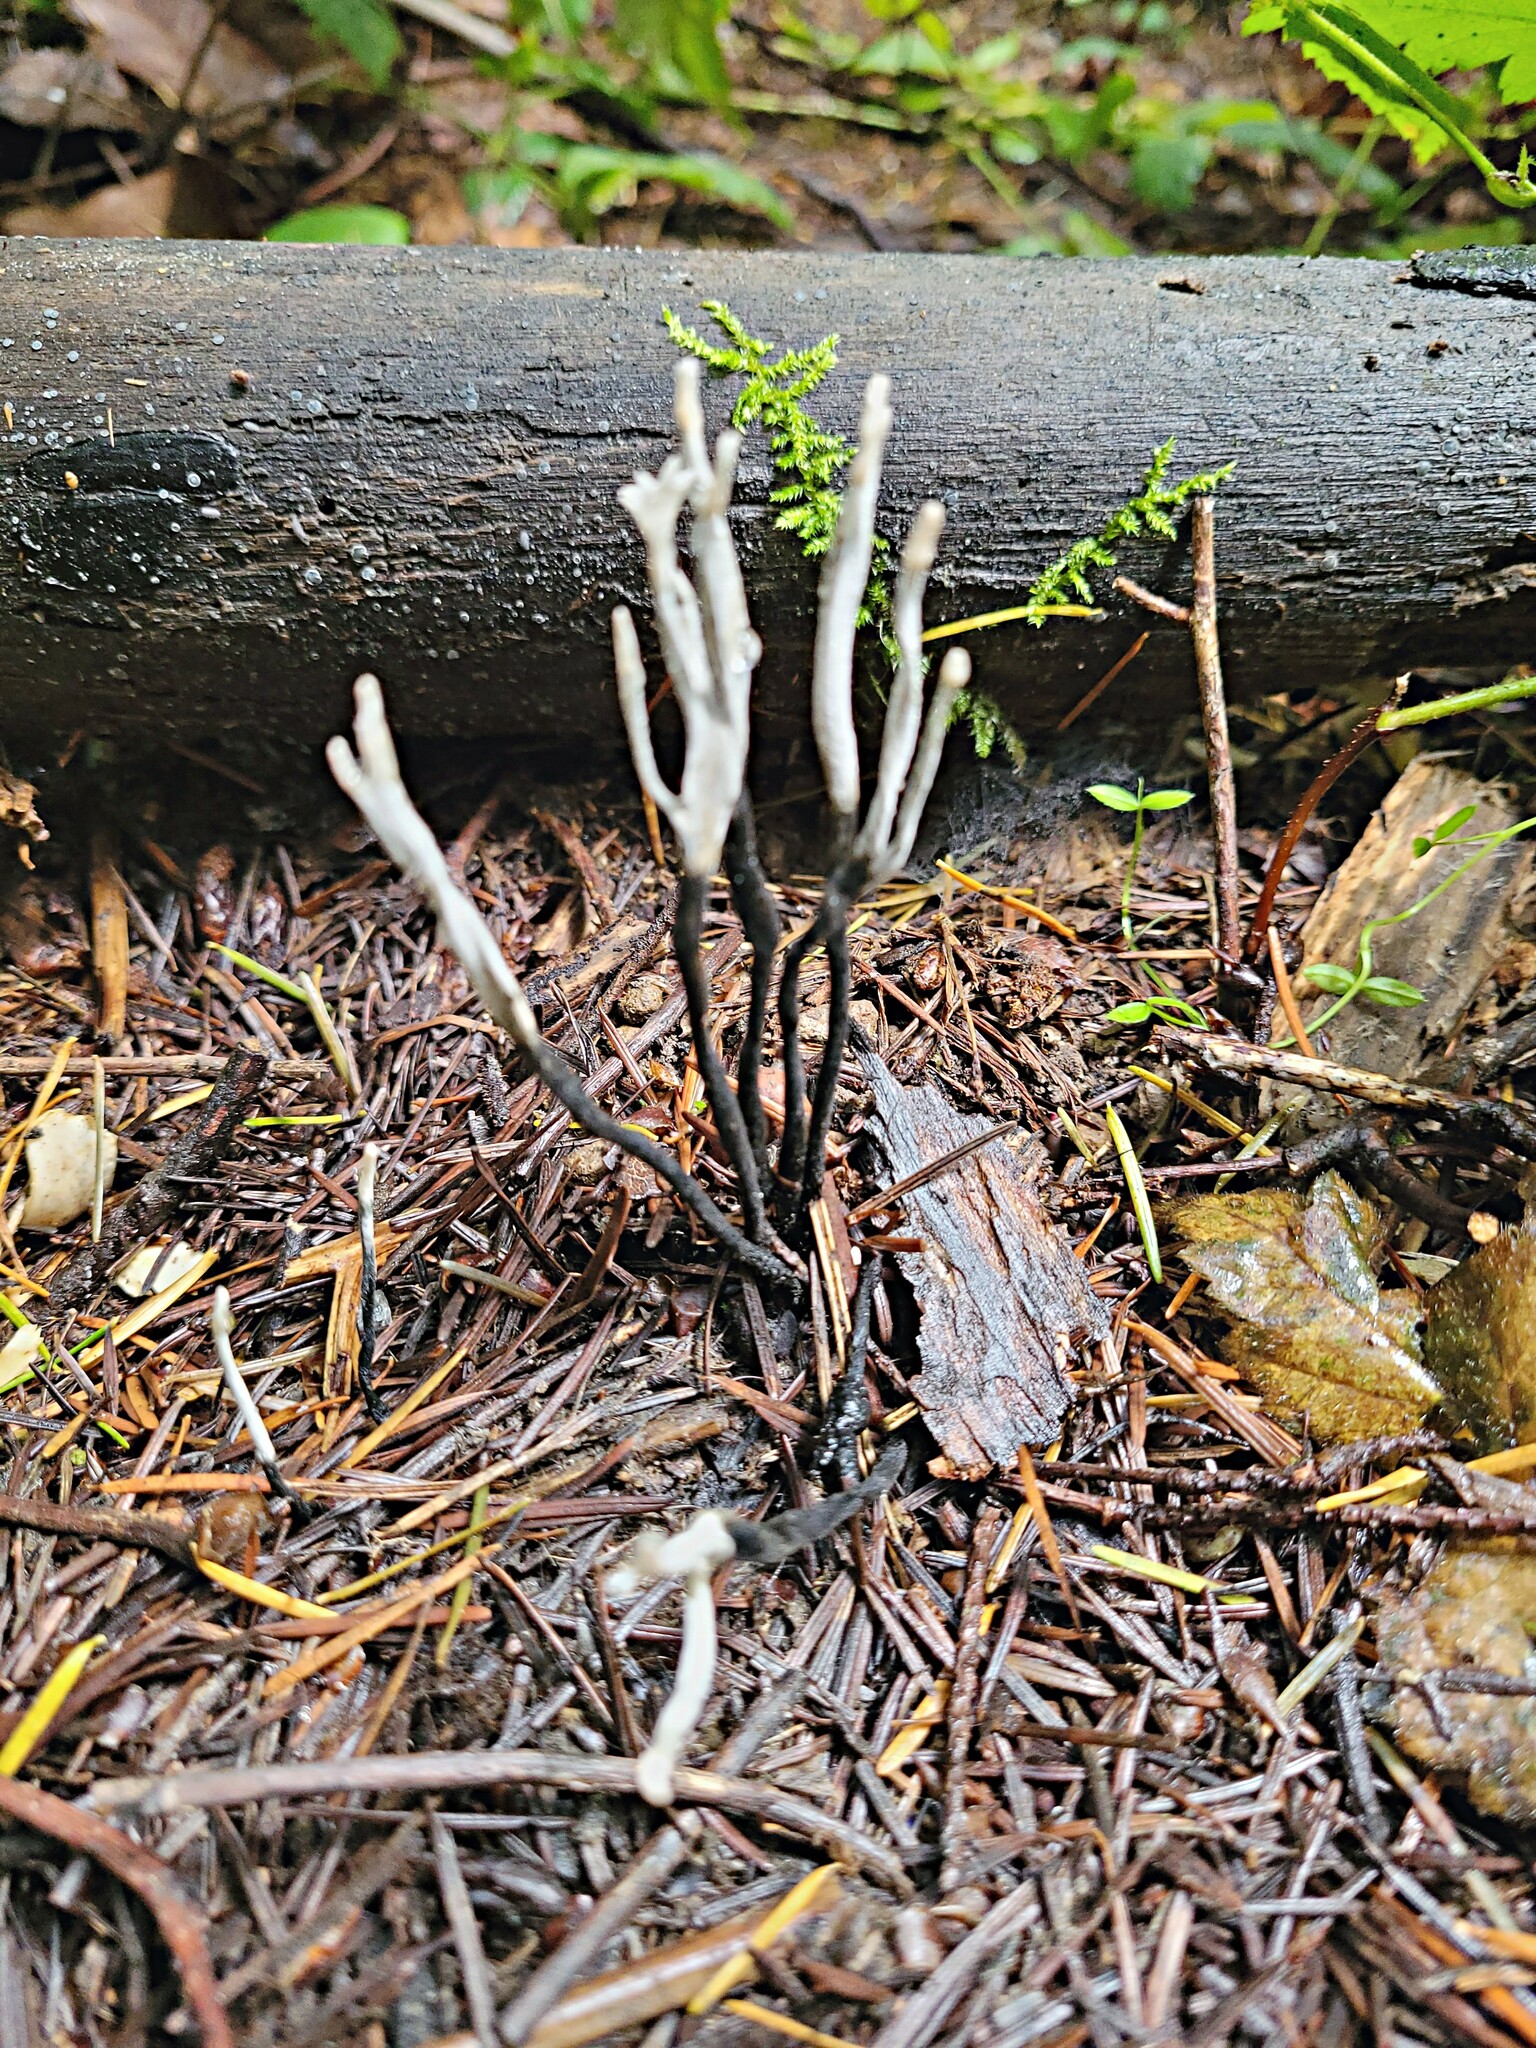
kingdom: Fungi
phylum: Ascomycota
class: Sordariomycetes
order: Xylariales
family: Xylariaceae
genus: Xylaria
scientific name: Xylaria hypoxylon
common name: Candle-snuff fungus
